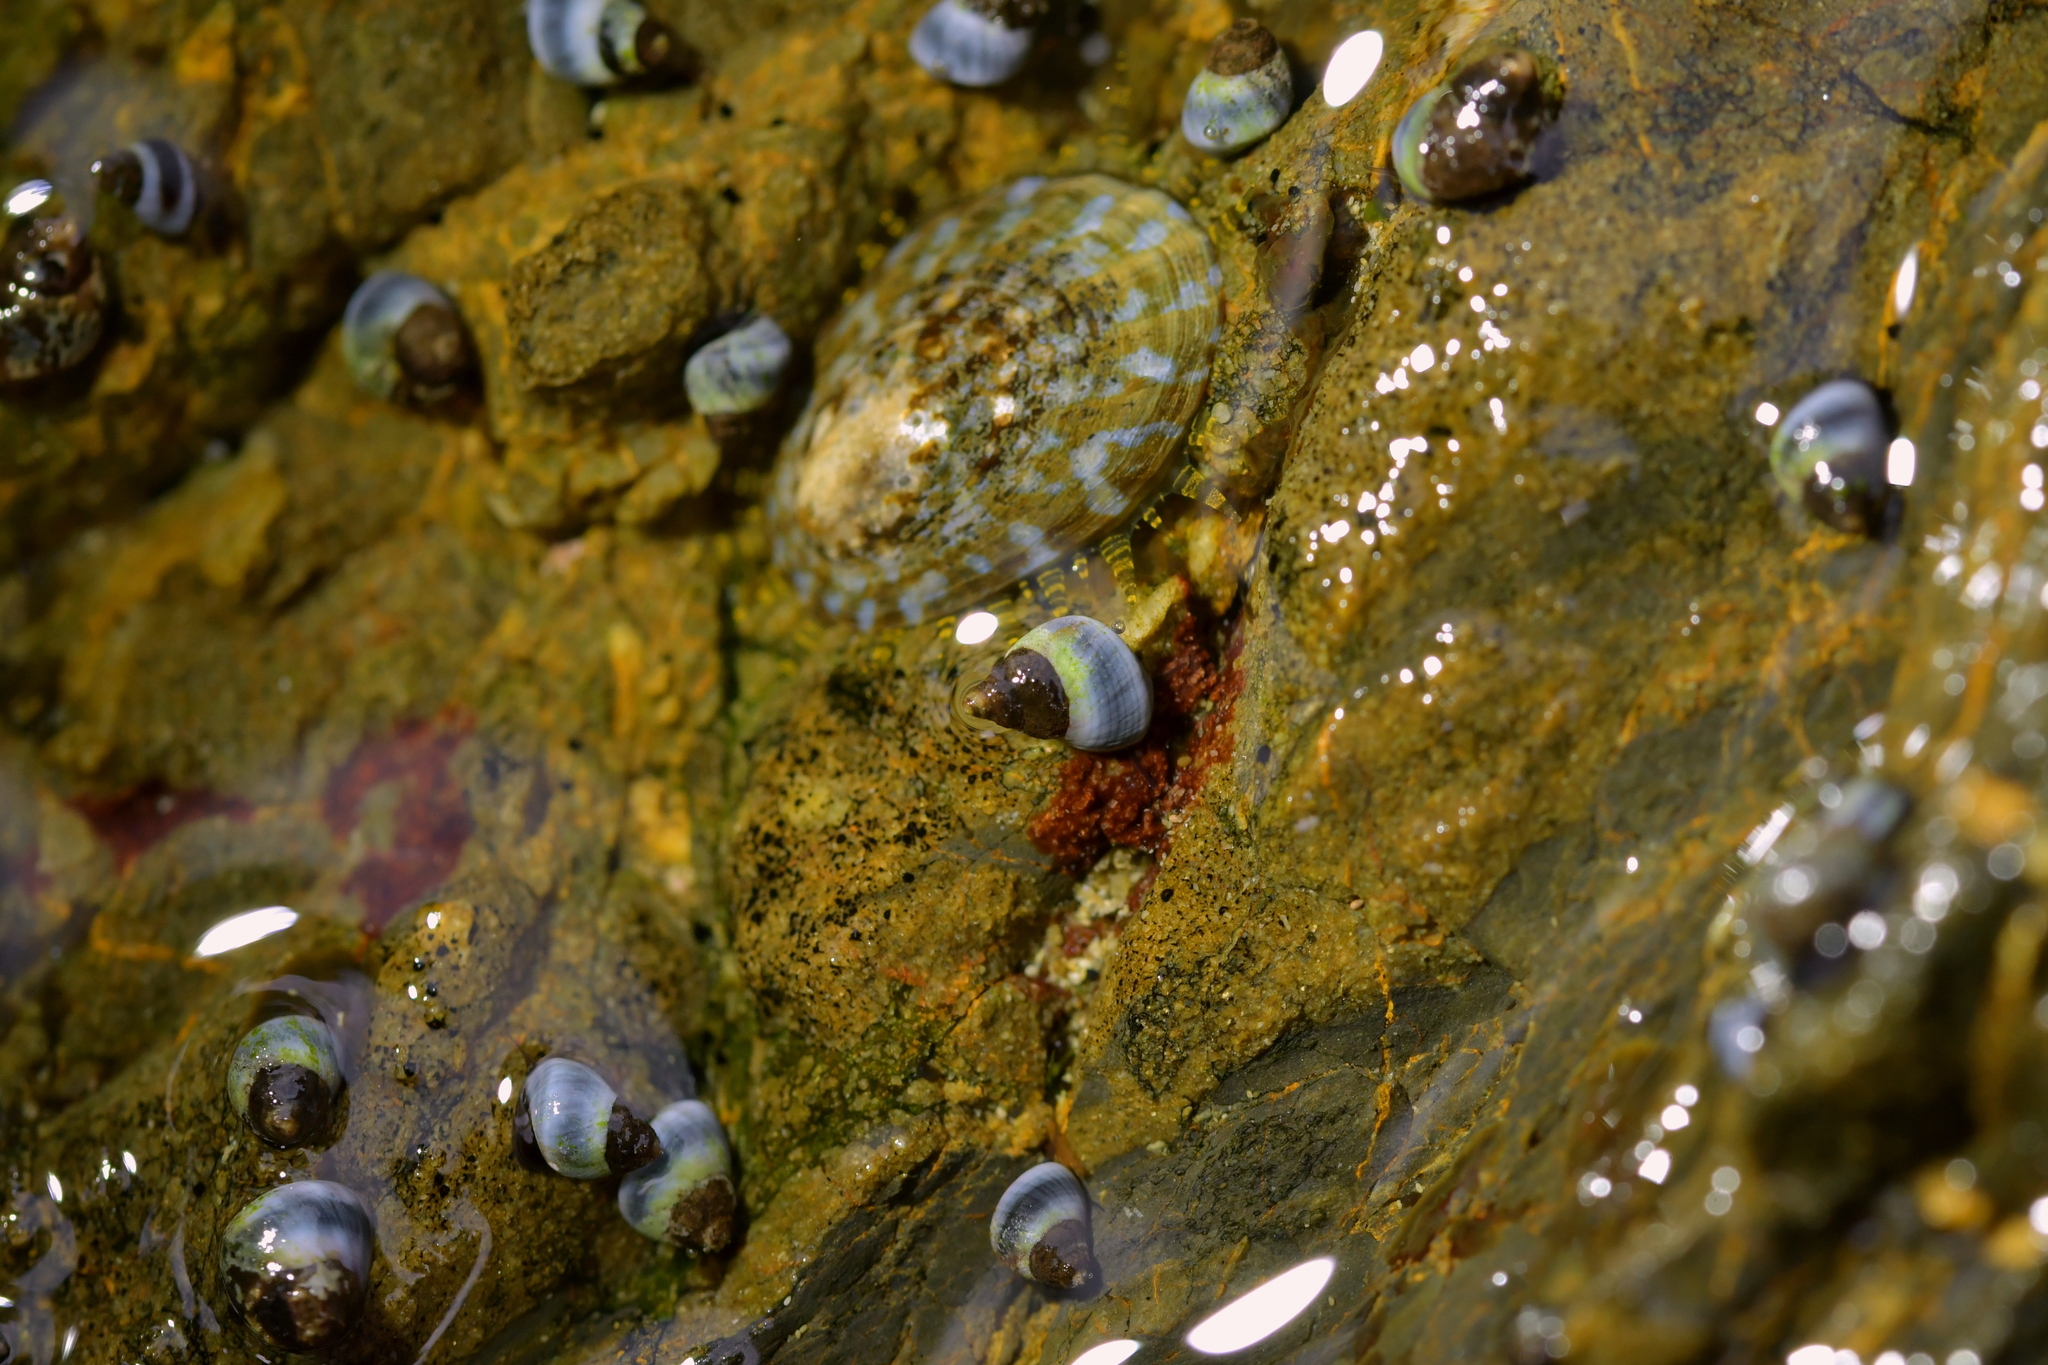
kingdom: Animalia
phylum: Mollusca
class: Gastropoda
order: Littorinimorpha
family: Littorinidae
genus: Austrolittorina
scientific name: Austrolittorina antipodum
